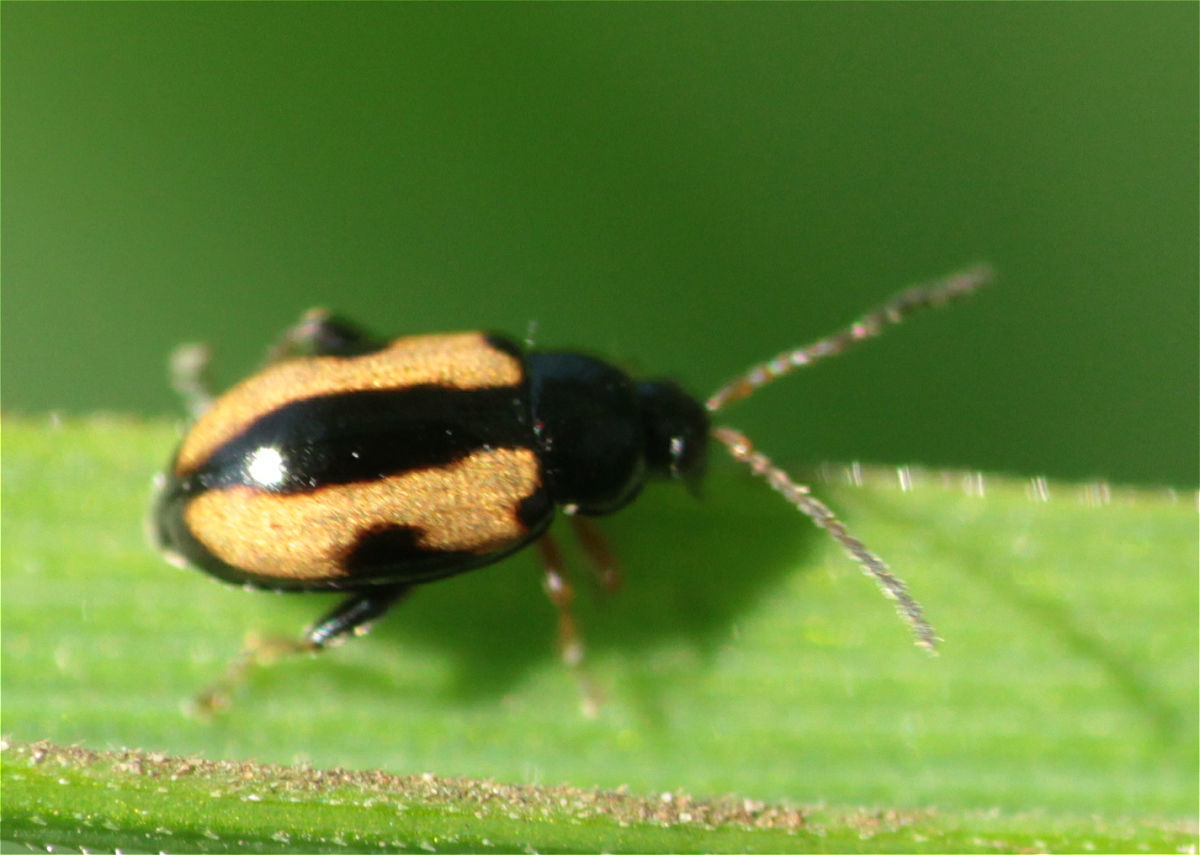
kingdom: Animalia
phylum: Arthropoda
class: Insecta
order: Coleoptera
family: Chrysomelidae
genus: Phyllotreta
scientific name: Phyllotreta ochripes
